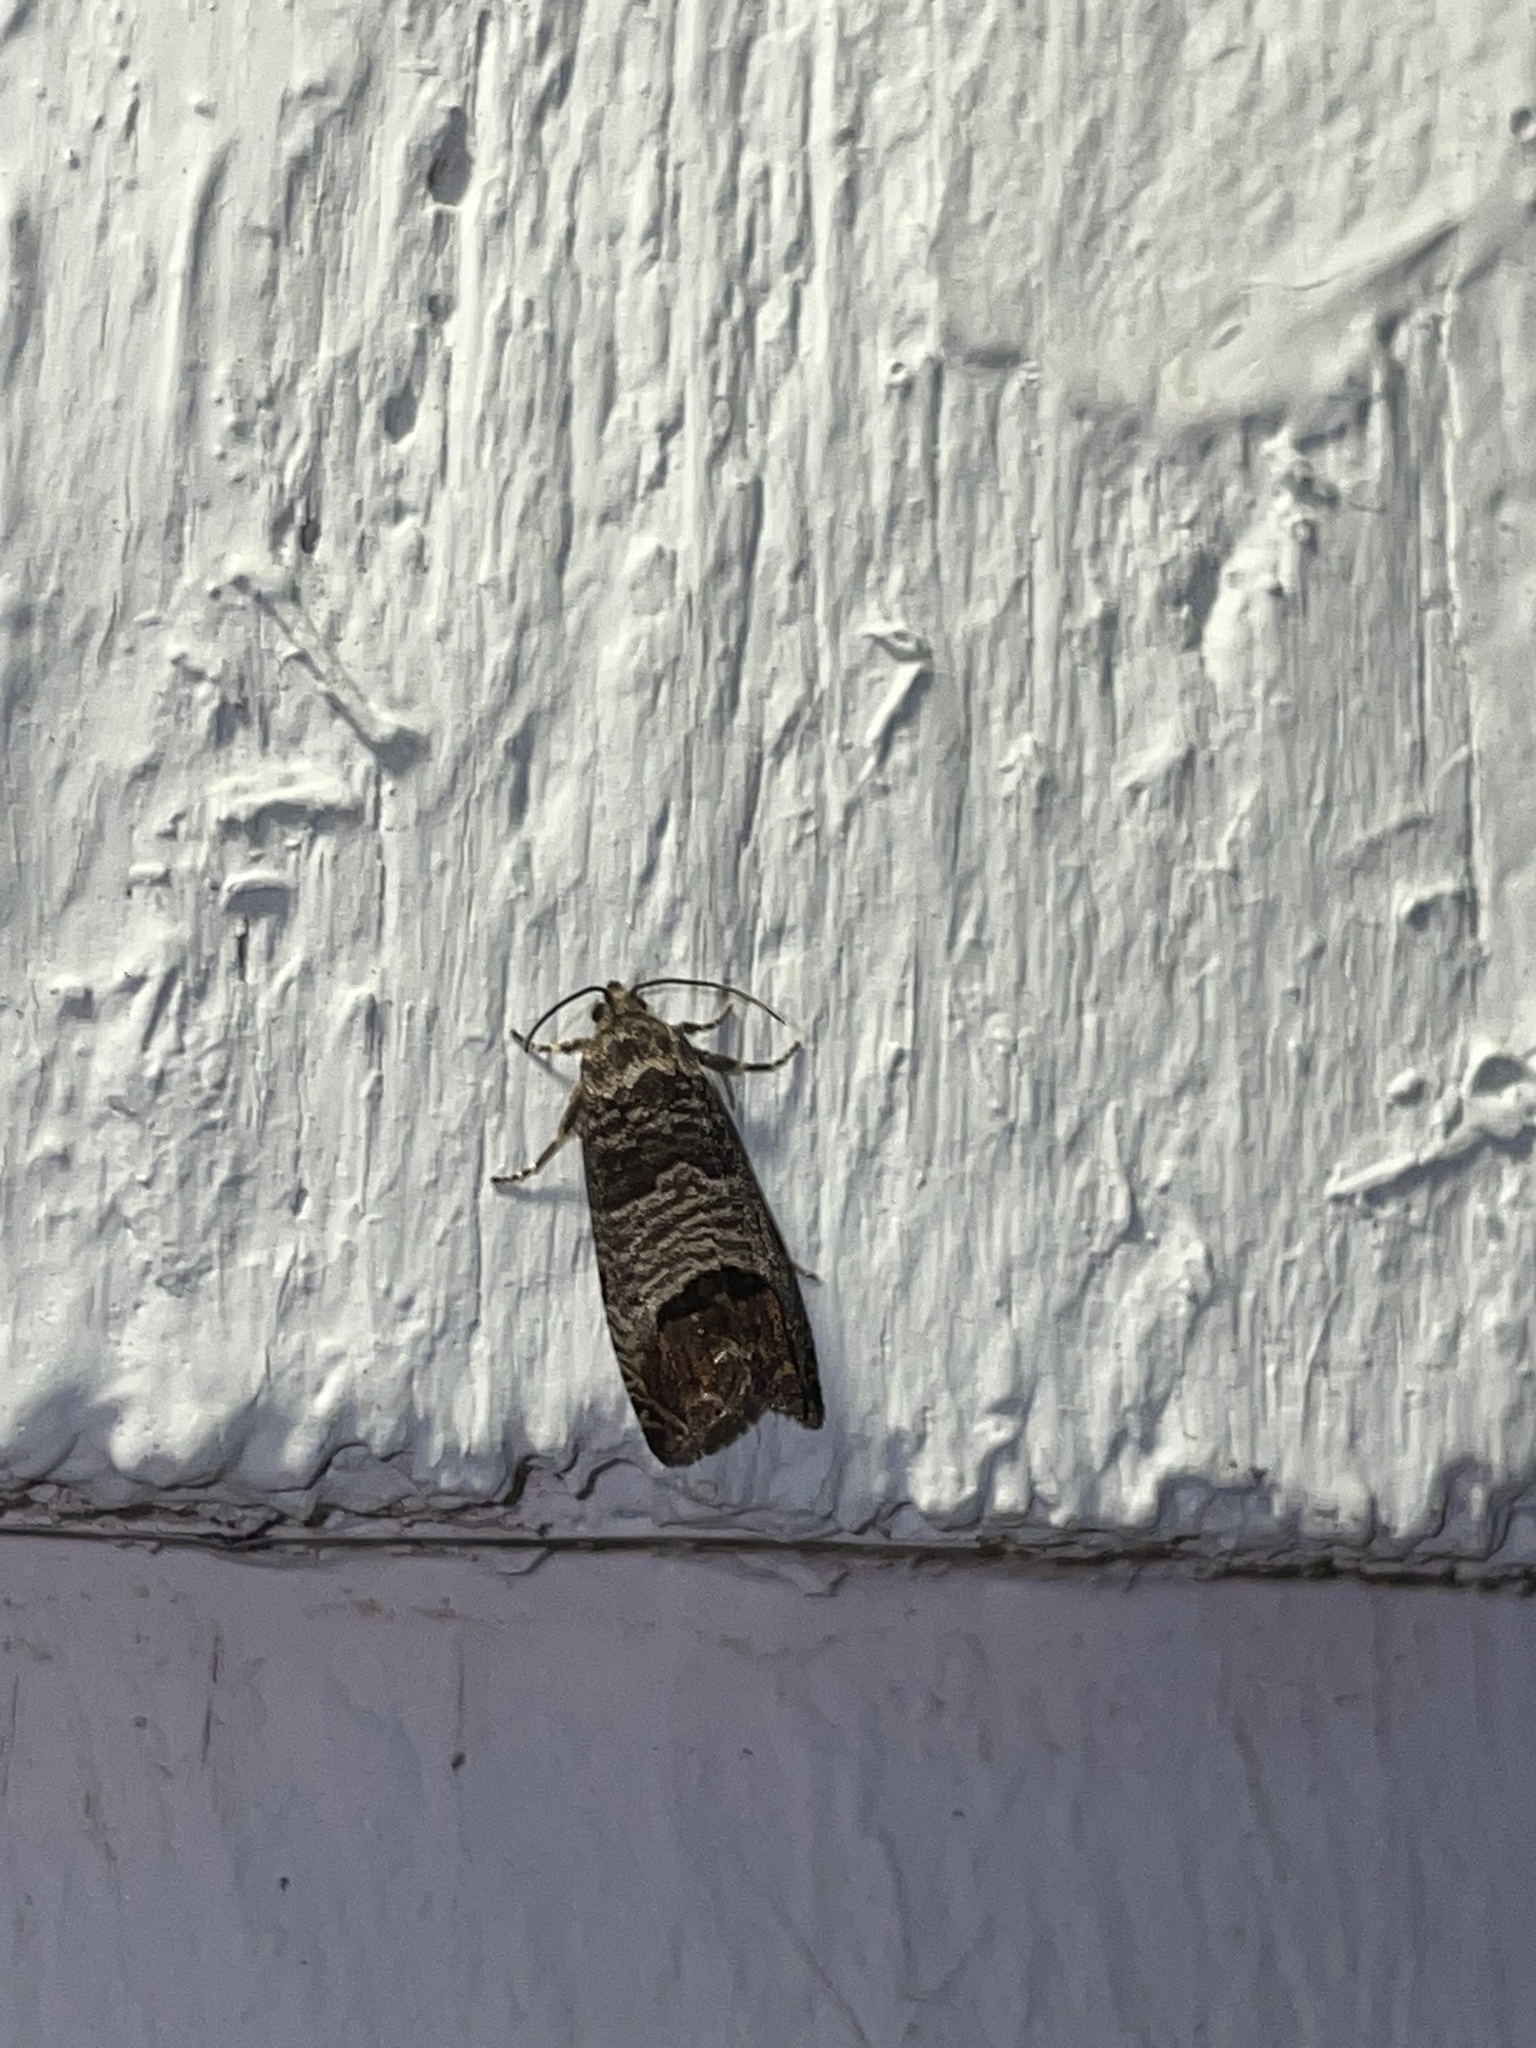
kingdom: Animalia
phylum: Arthropoda
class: Insecta
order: Lepidoptera
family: Tortricidae
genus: Cydia
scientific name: Cydia pomonella
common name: Codling moth
